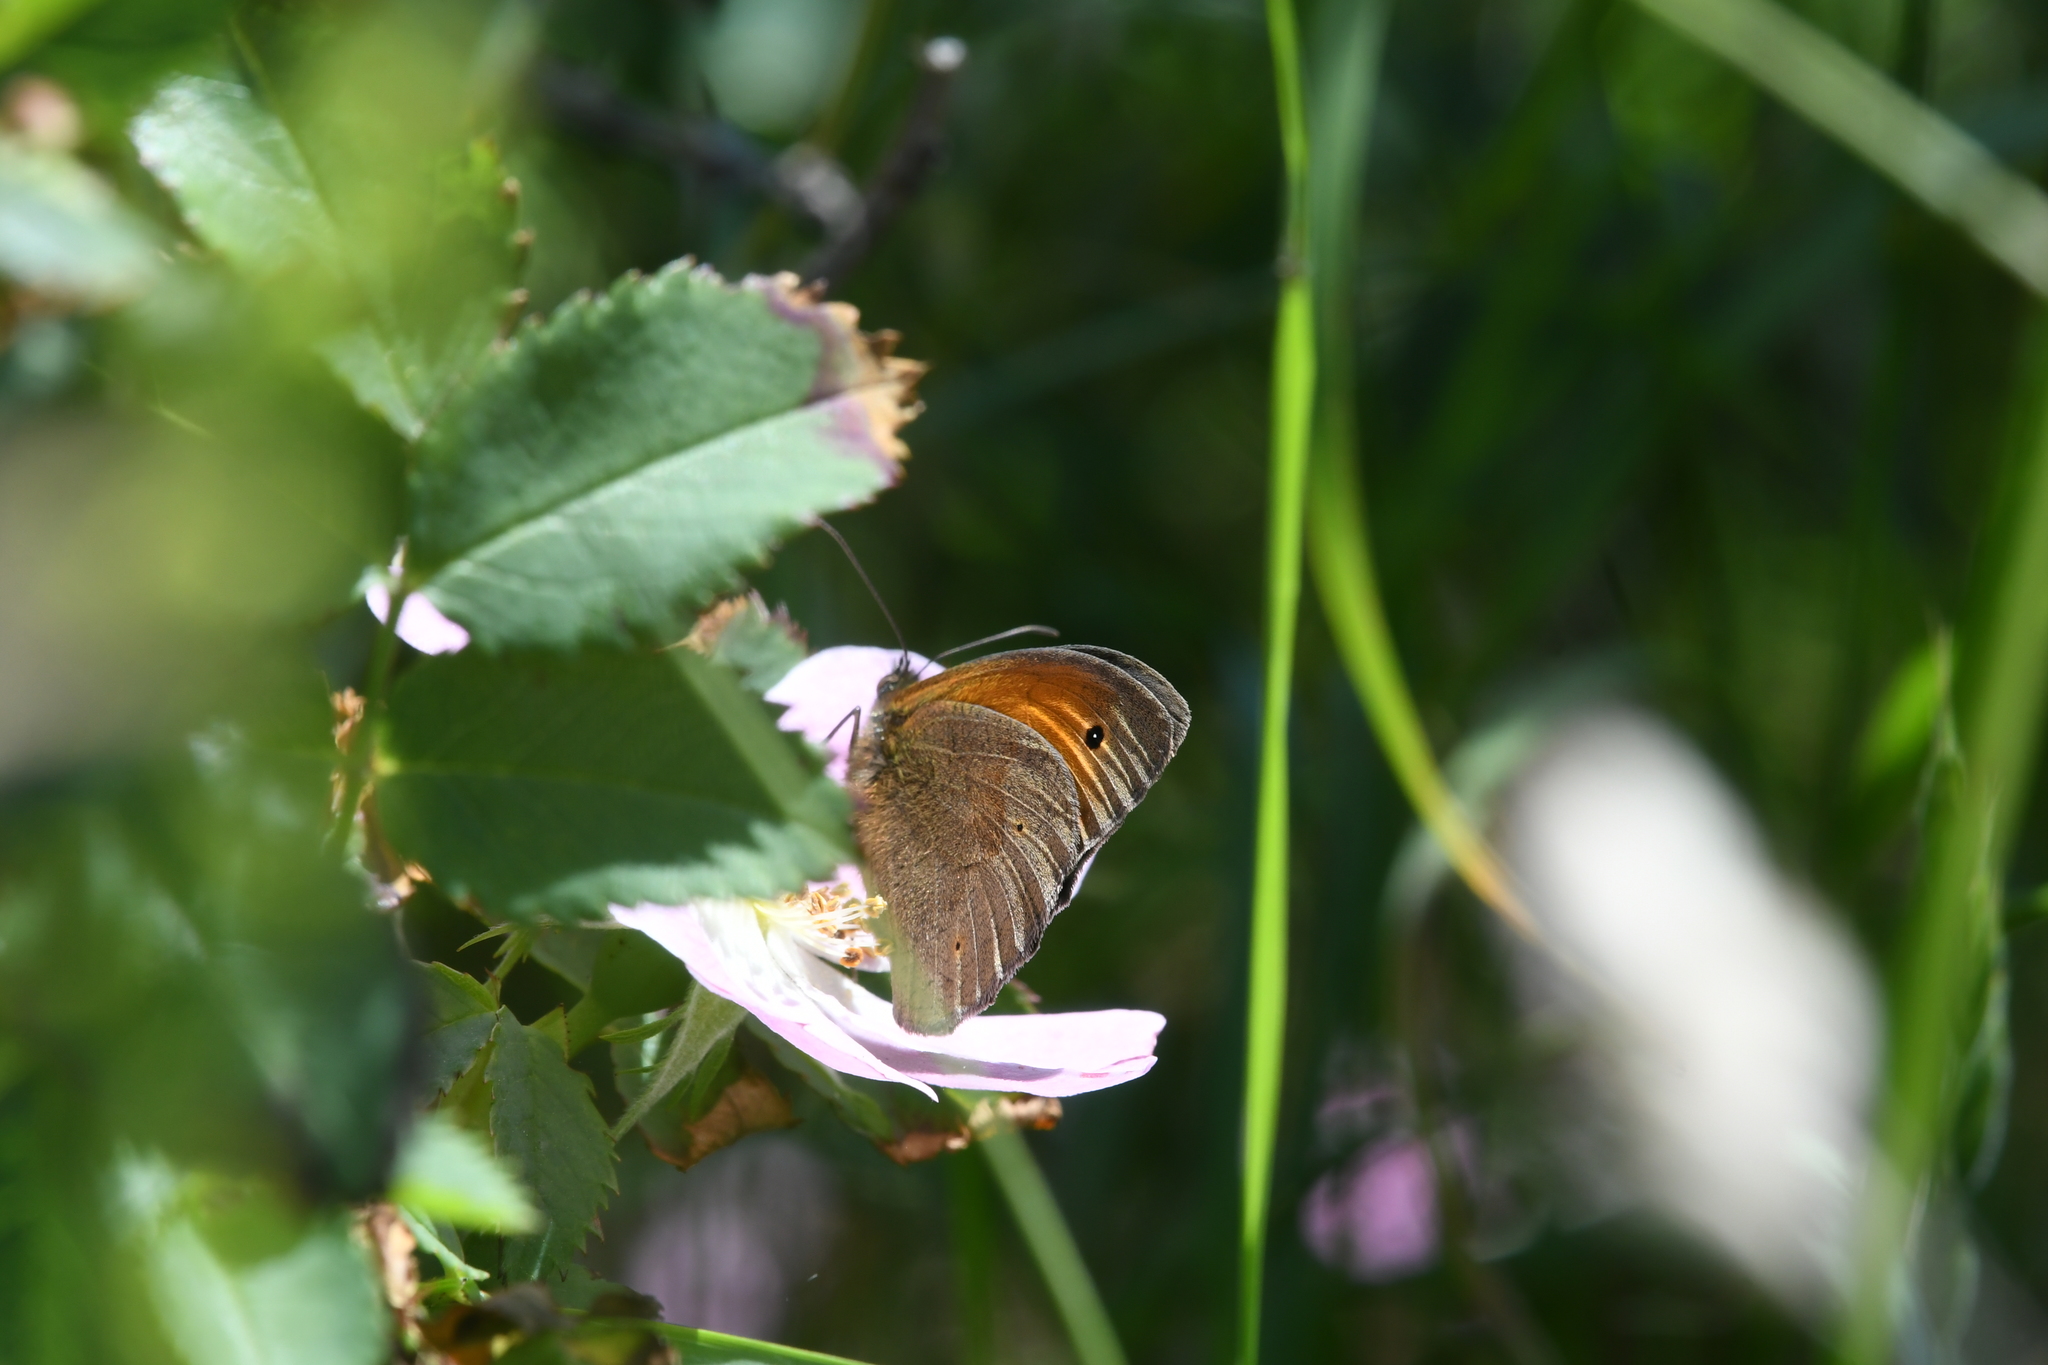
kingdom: Animalia
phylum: Arthropoda
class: Insecta
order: Lepidoptera
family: Nymphalidae
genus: Maniola
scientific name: Maniola jurtina
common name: Meadow brown
